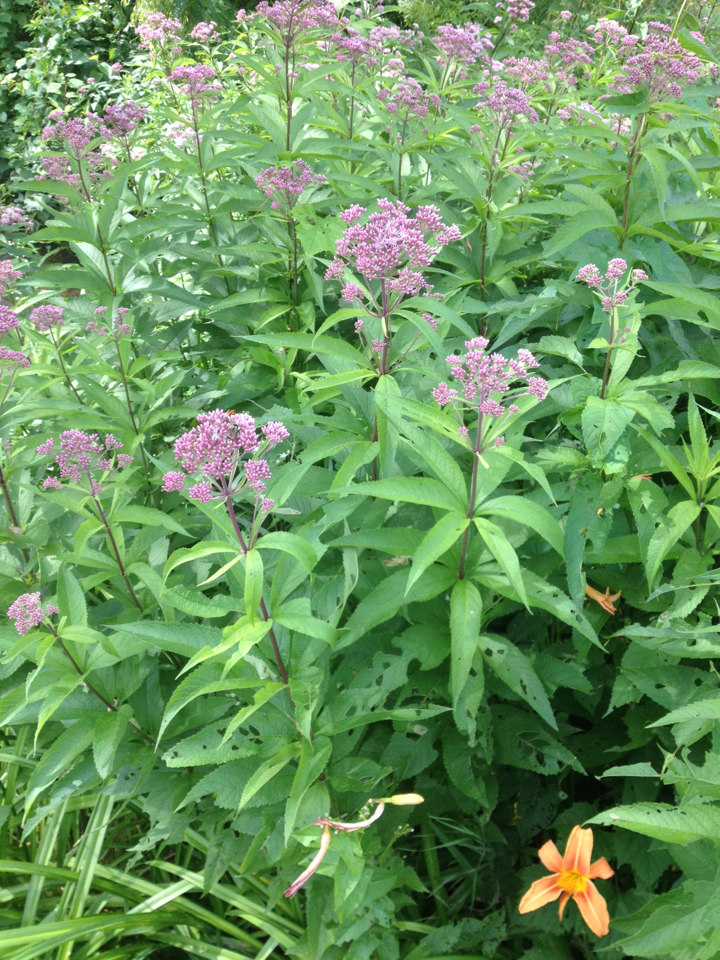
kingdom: Plantae
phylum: Tracheophyta
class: Magnoliopsida
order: Asterales
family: Asteraceae
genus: Eutrochium
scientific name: Eutrochium
